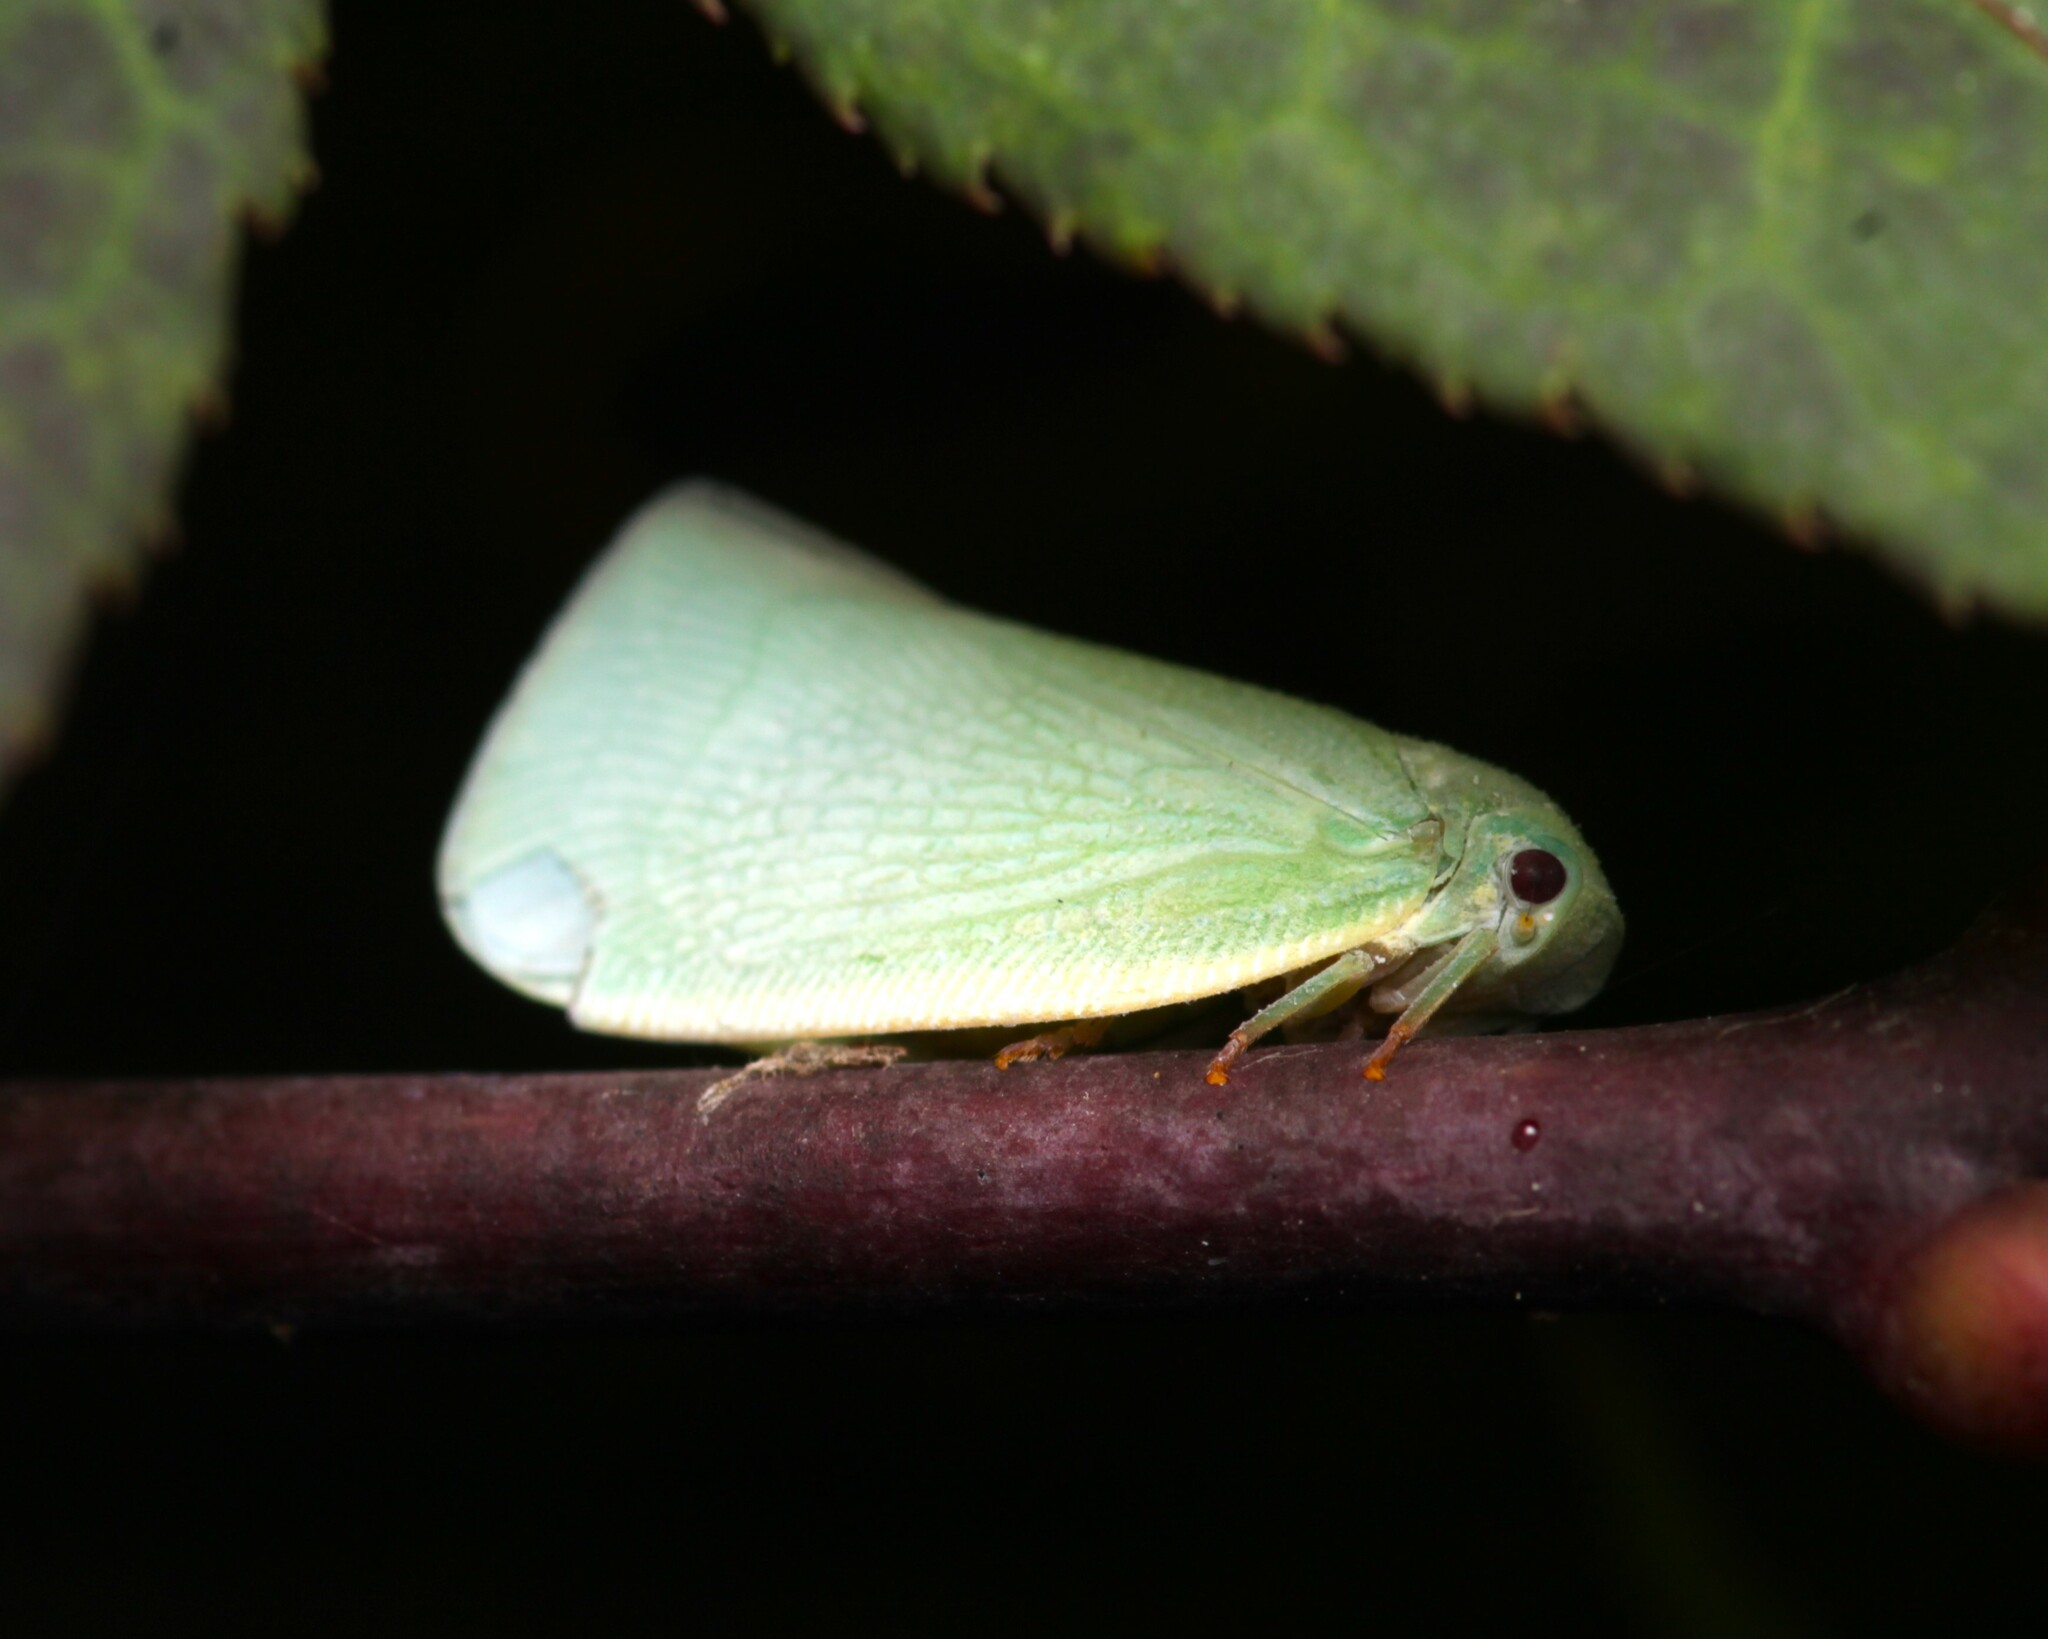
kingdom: Animalia
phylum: Arthropoda
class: Insecta
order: Hemiptera
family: Flatidae
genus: Flatormenis
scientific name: Flatormenis proxima
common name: Northern flatid planthopper
